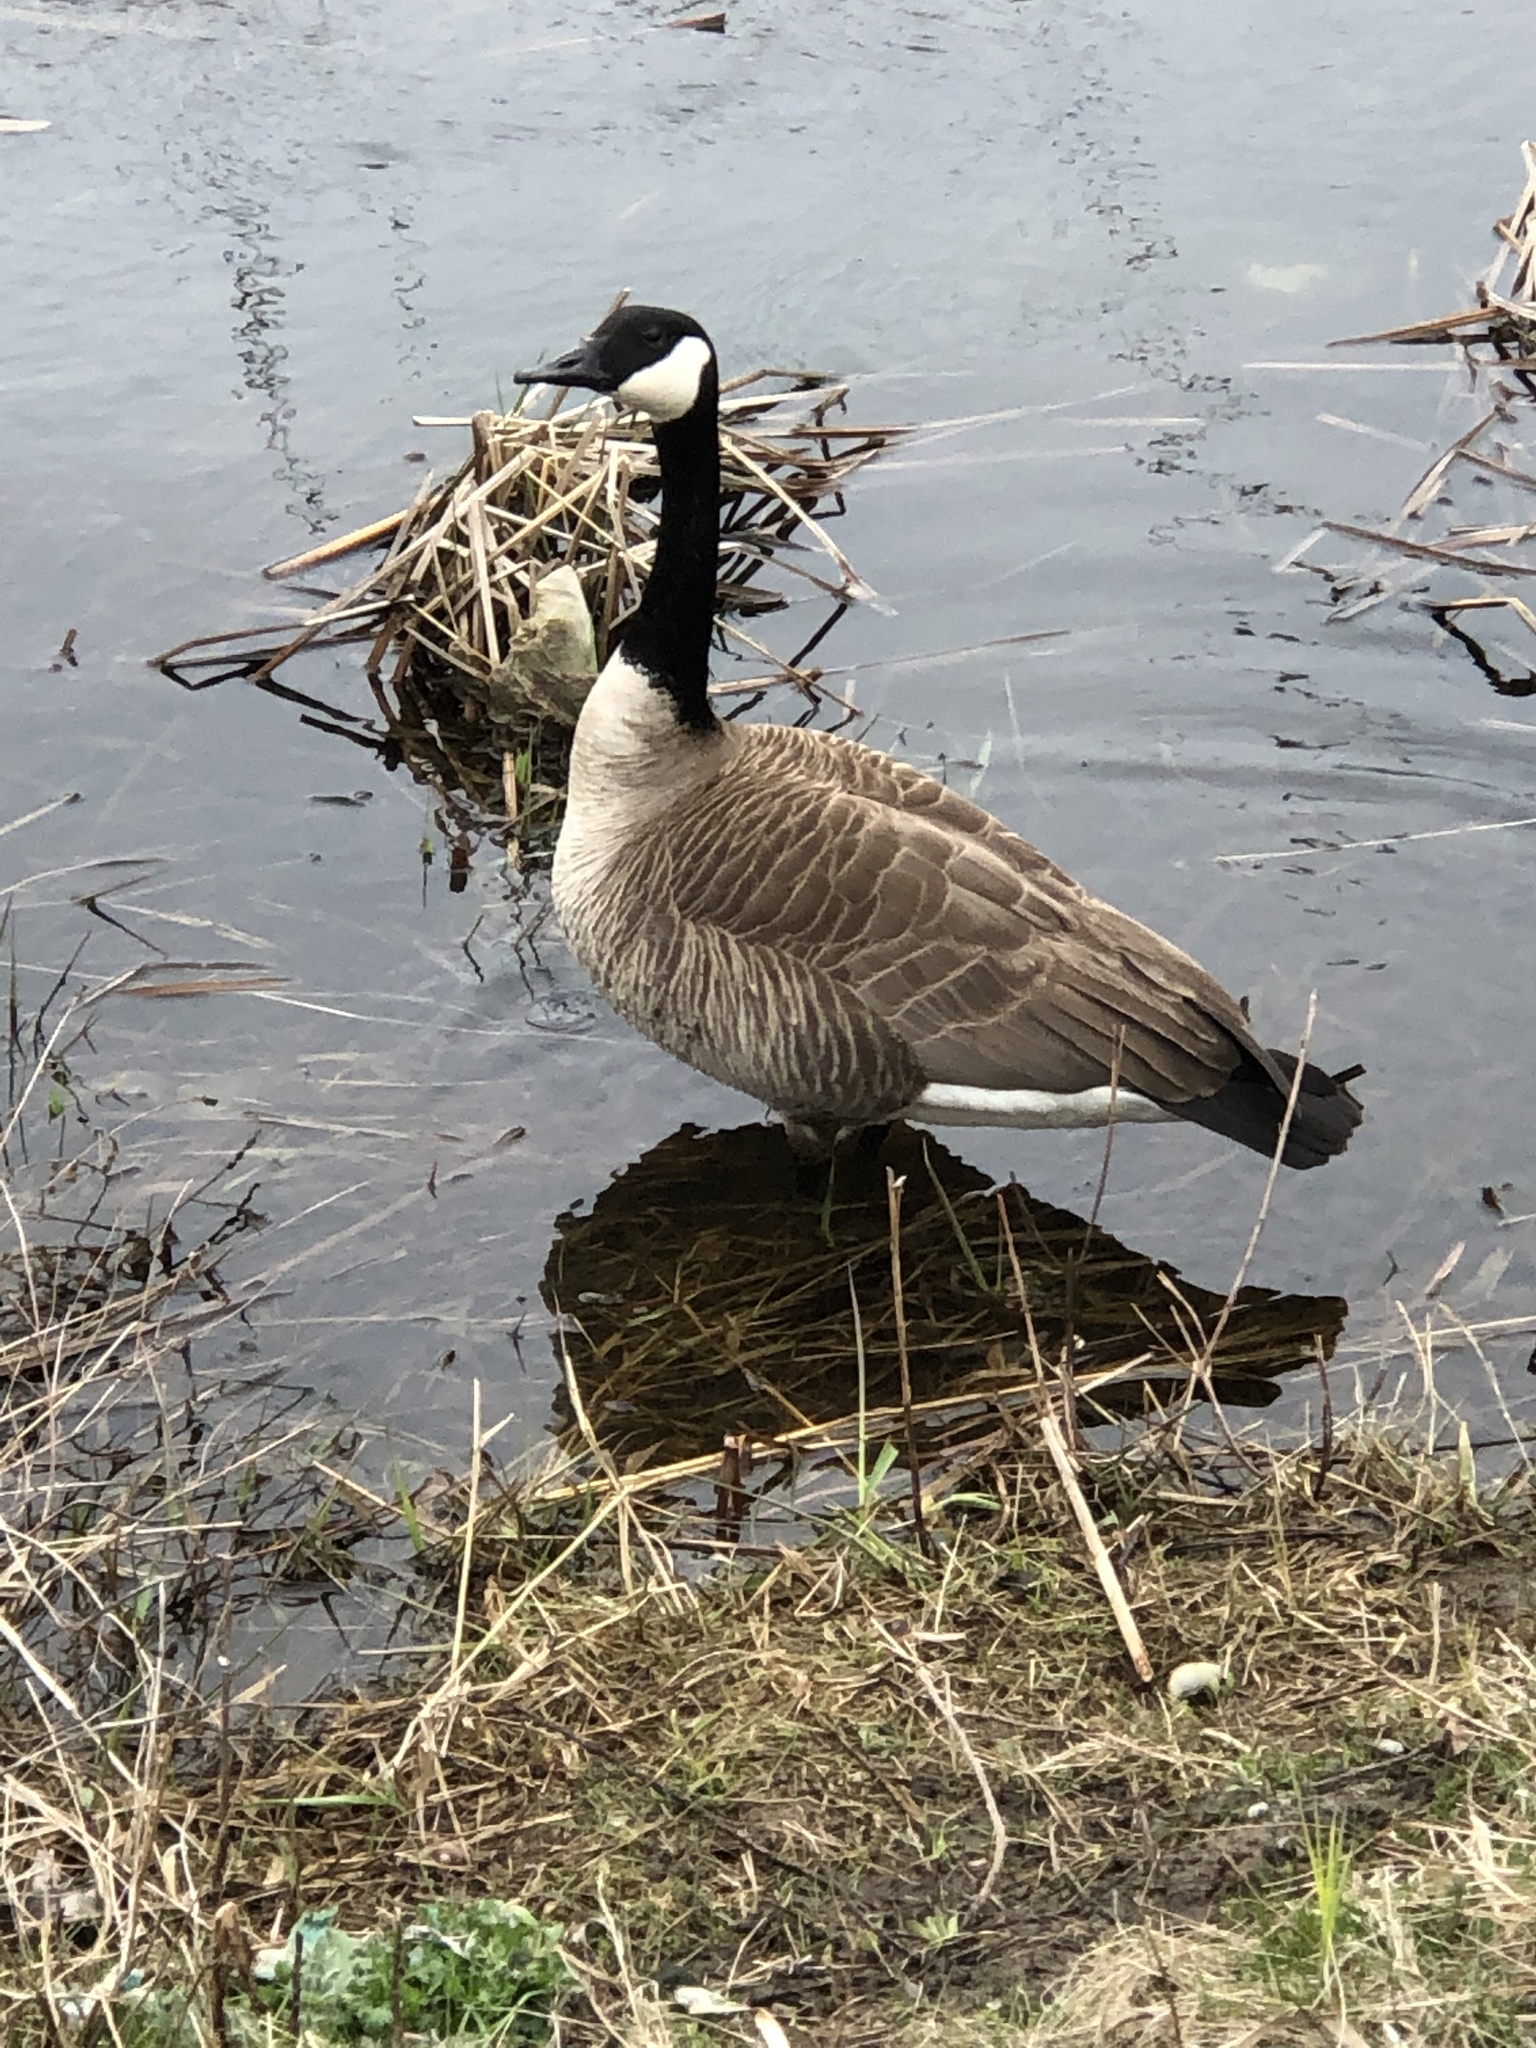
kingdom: Animalia
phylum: Chordata
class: Aves
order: Anseriformes
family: Anatidae
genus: Branta
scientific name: Branta canadensis
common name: Canada goose
